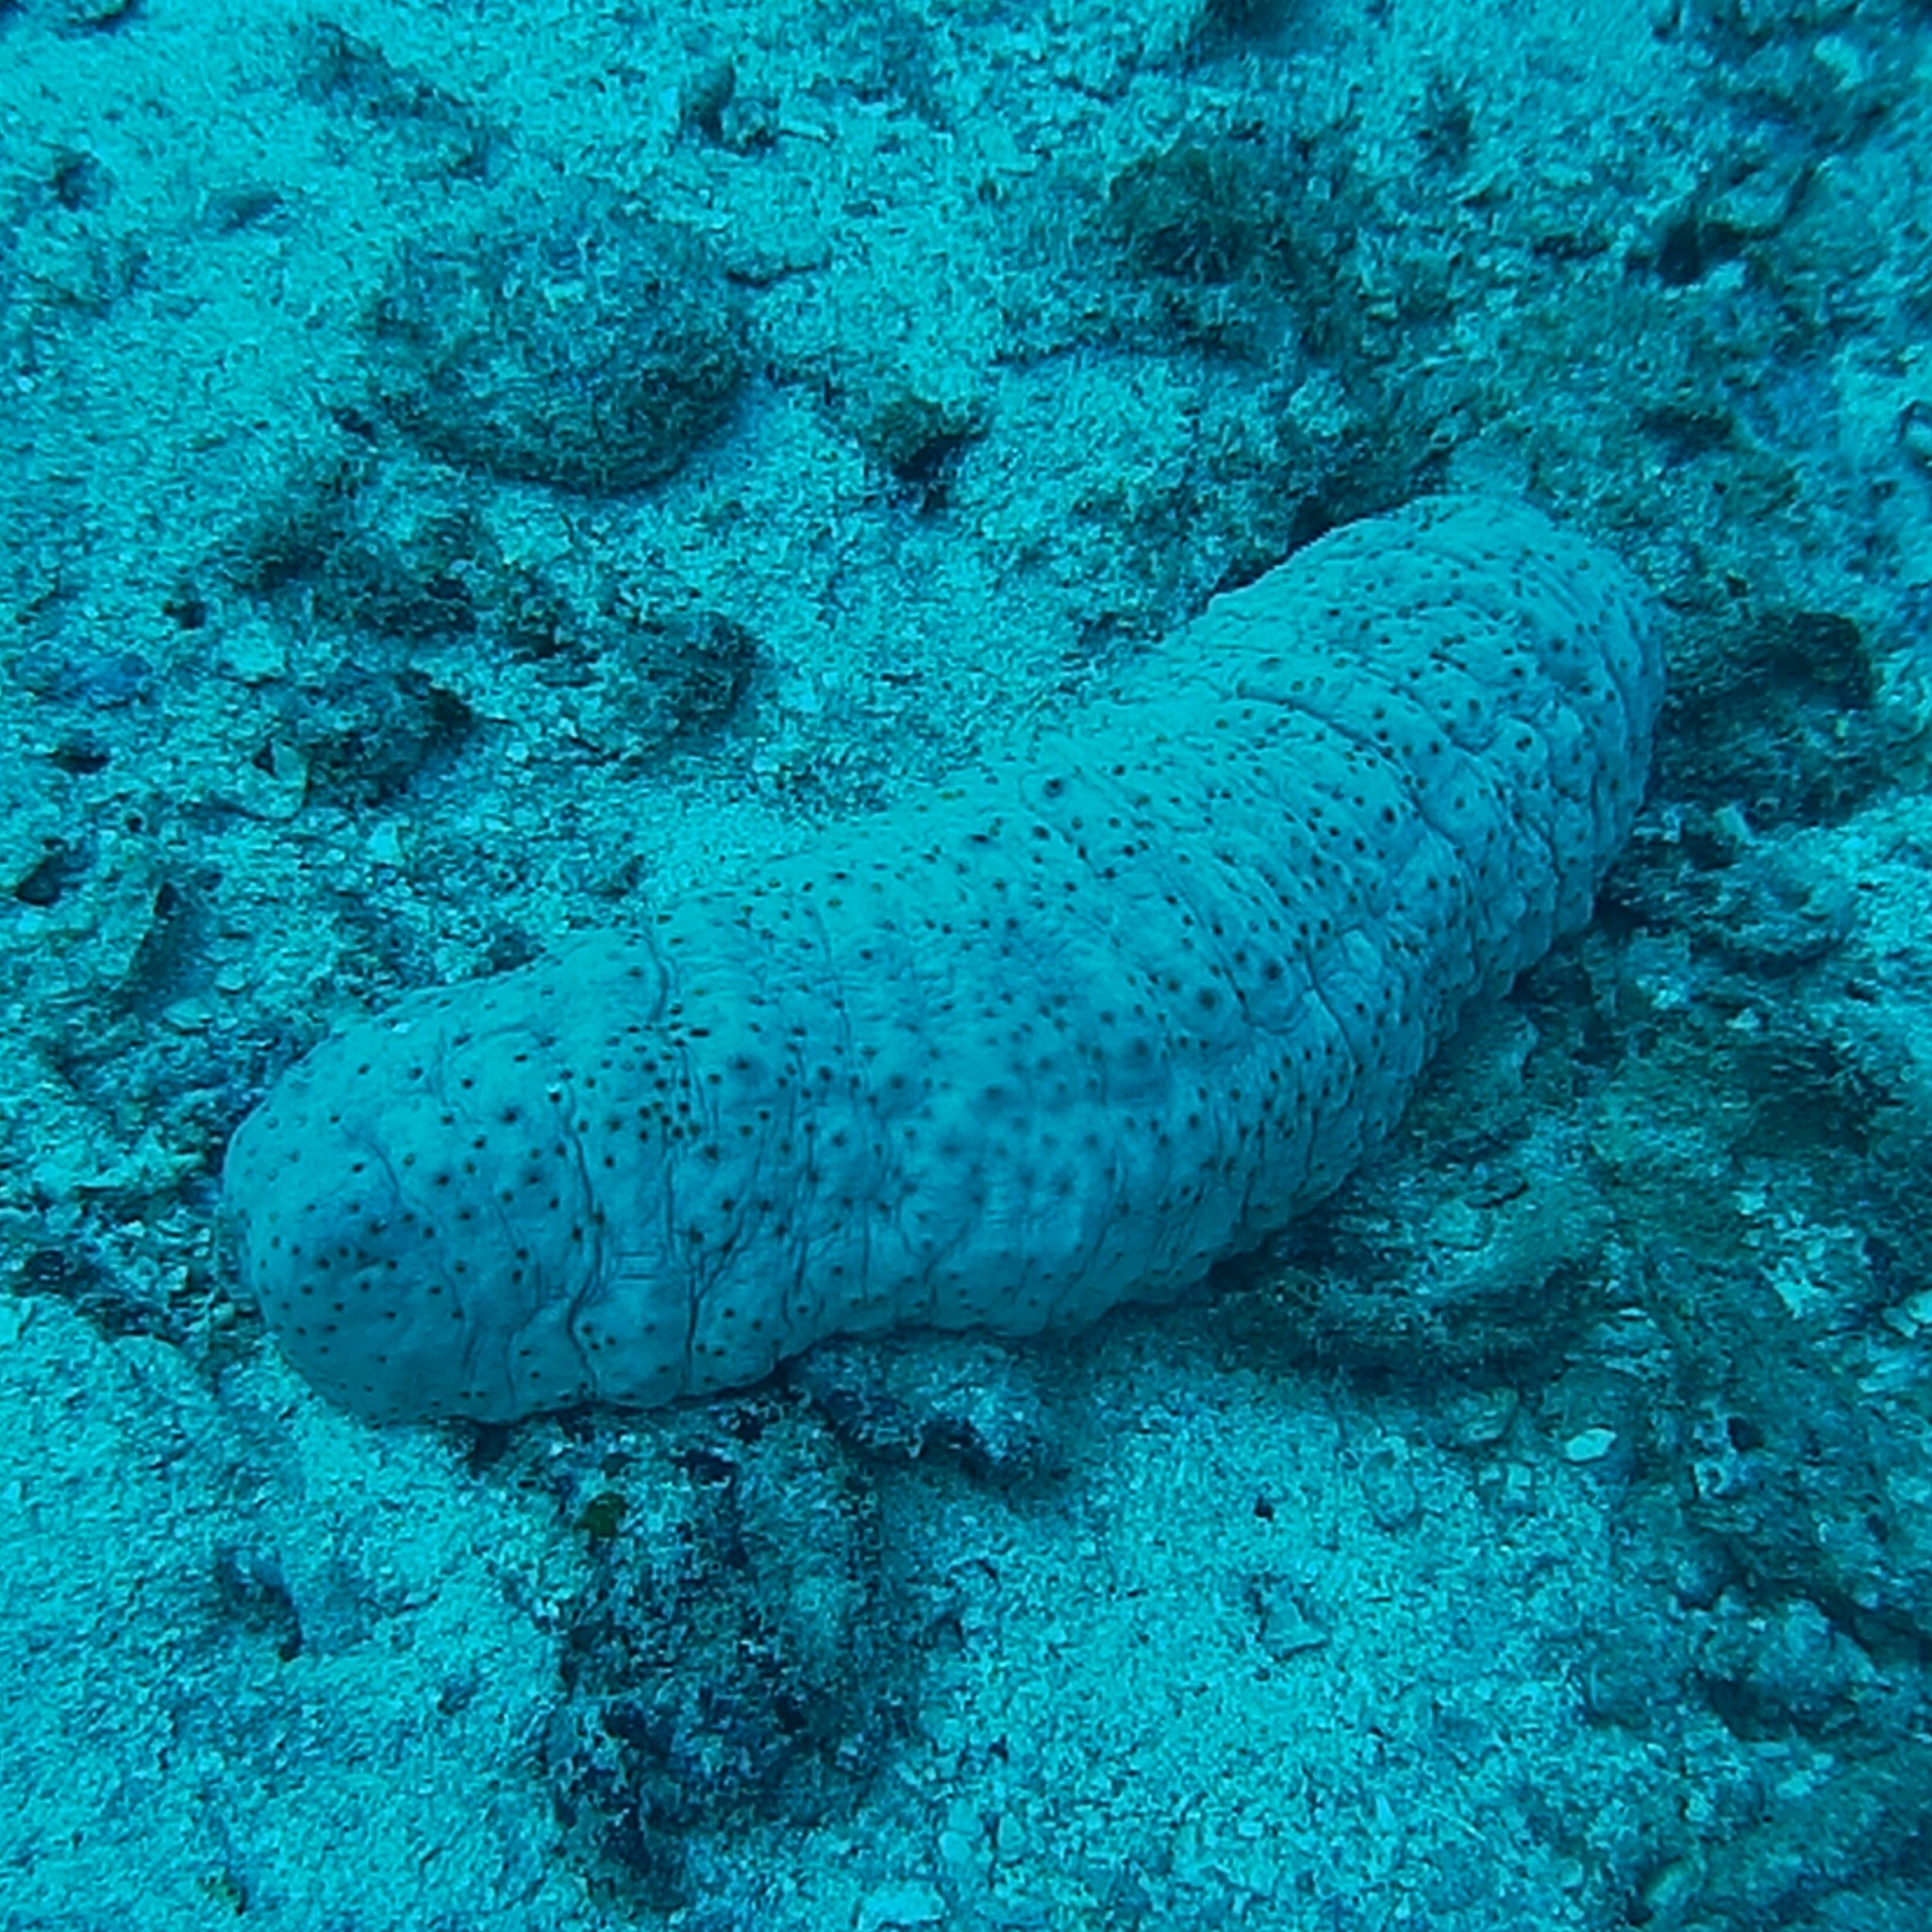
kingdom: Animalia
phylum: Echinodermata
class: Holothuroidea
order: Synallactida
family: Stichopodidae
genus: Stichopus
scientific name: Stichopus herrmanni
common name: Curryfish
